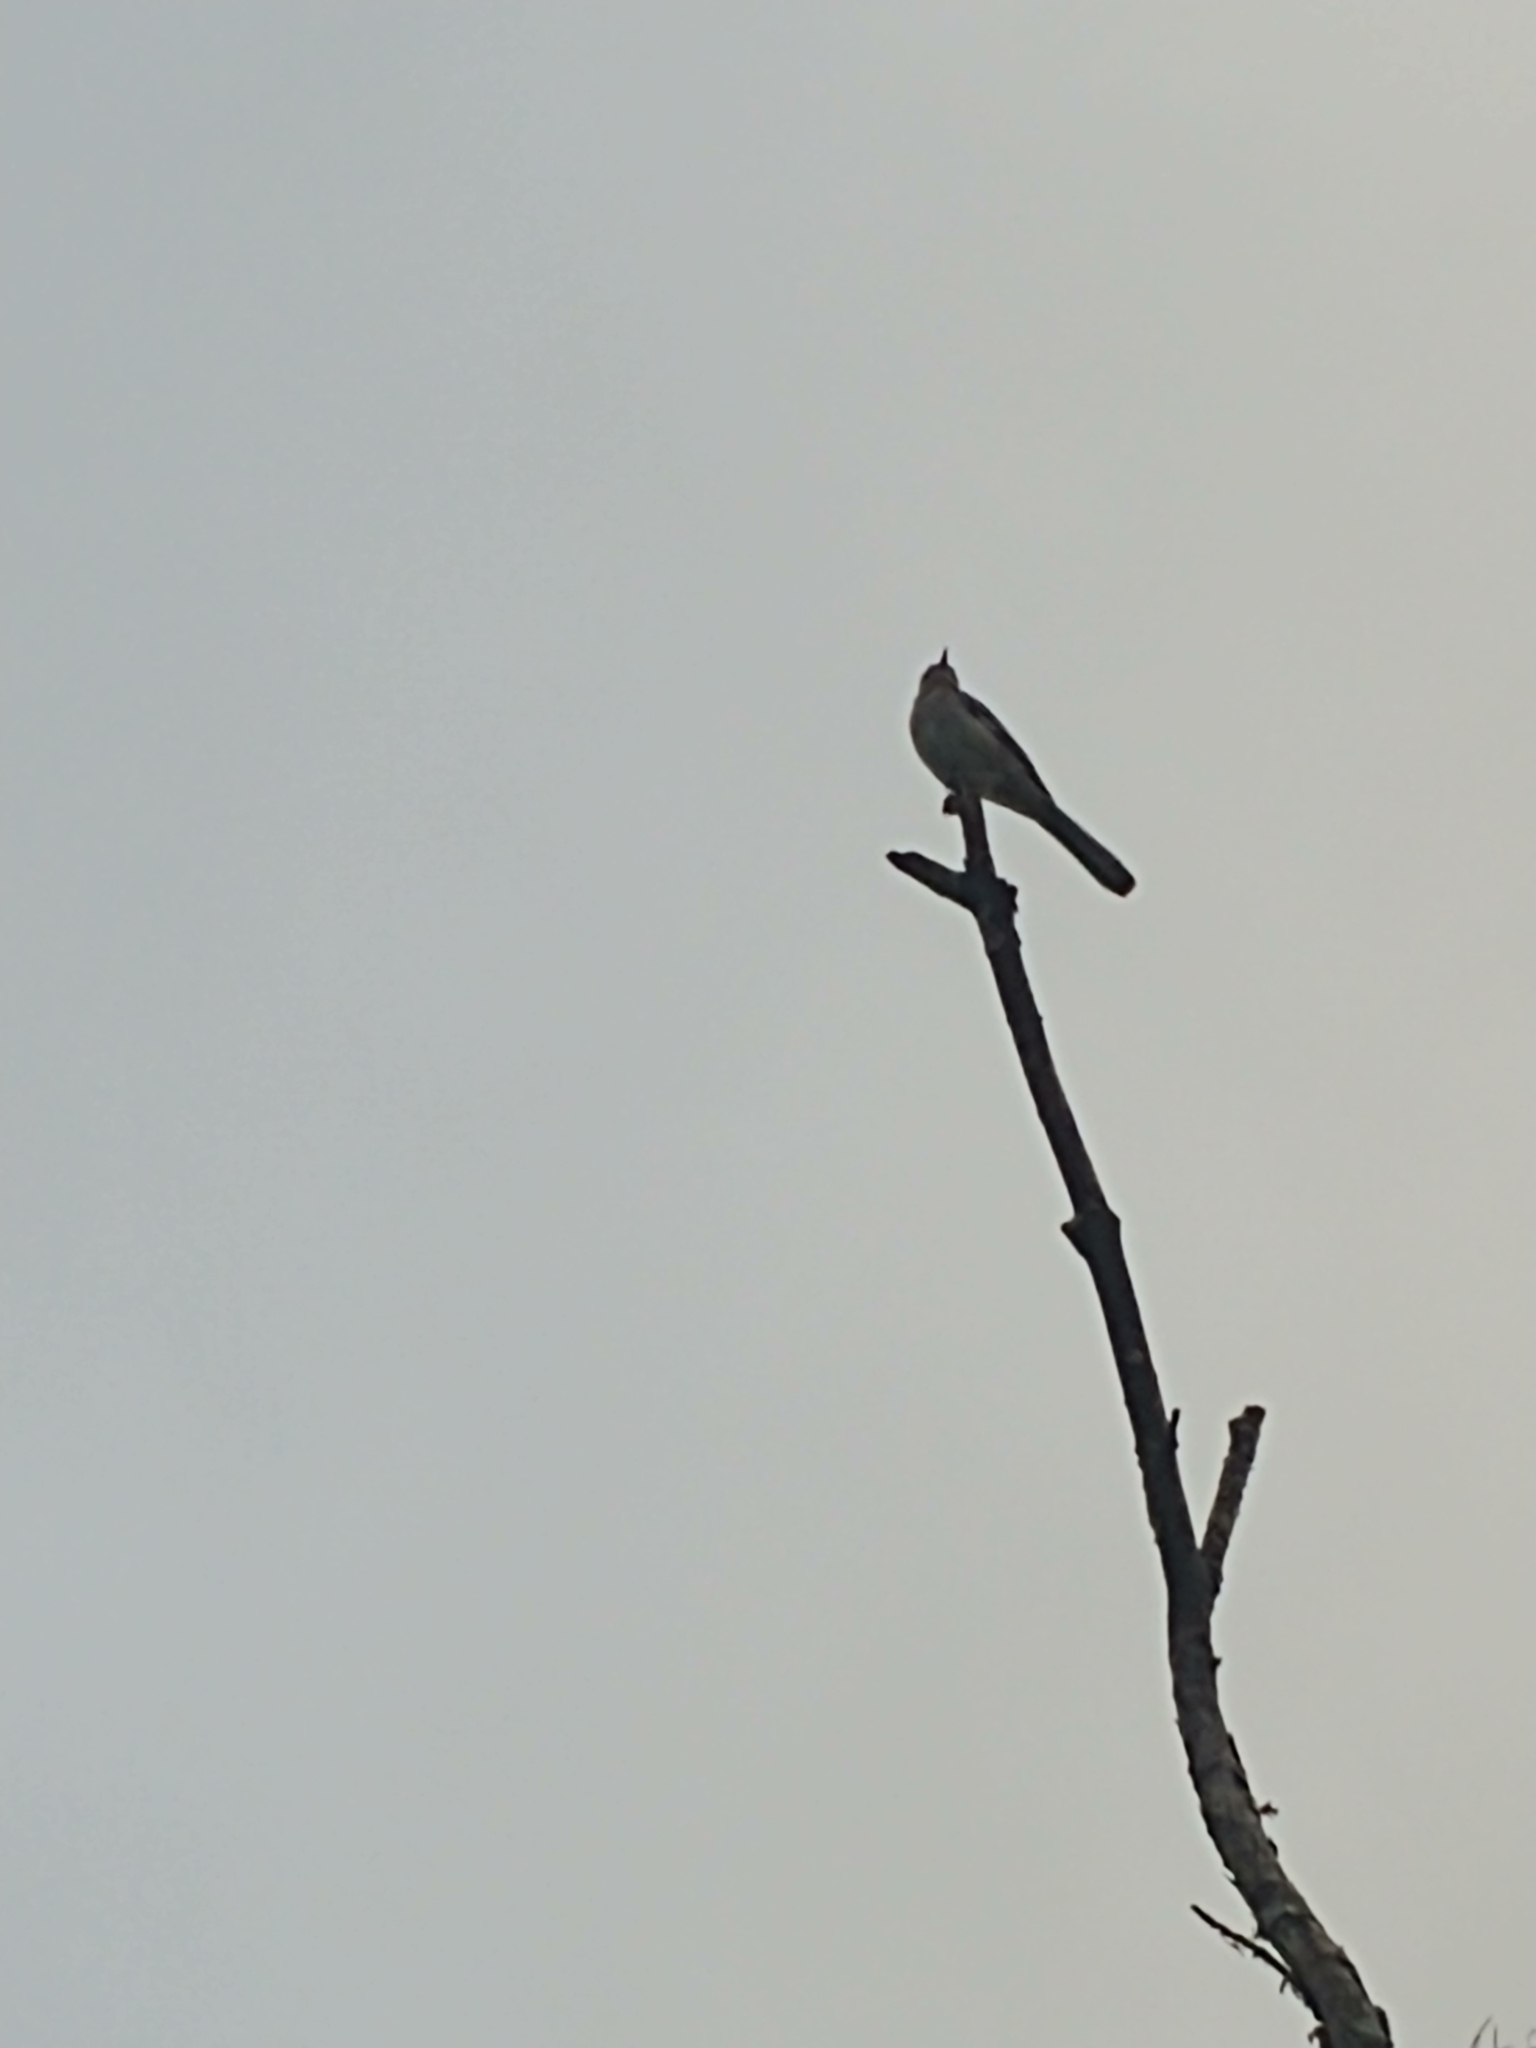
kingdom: Animalia
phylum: Chordata
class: Aves
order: Passeriformes
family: Mimidae
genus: Mimus
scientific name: Mimus polyglottos
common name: Northern mockingbird
